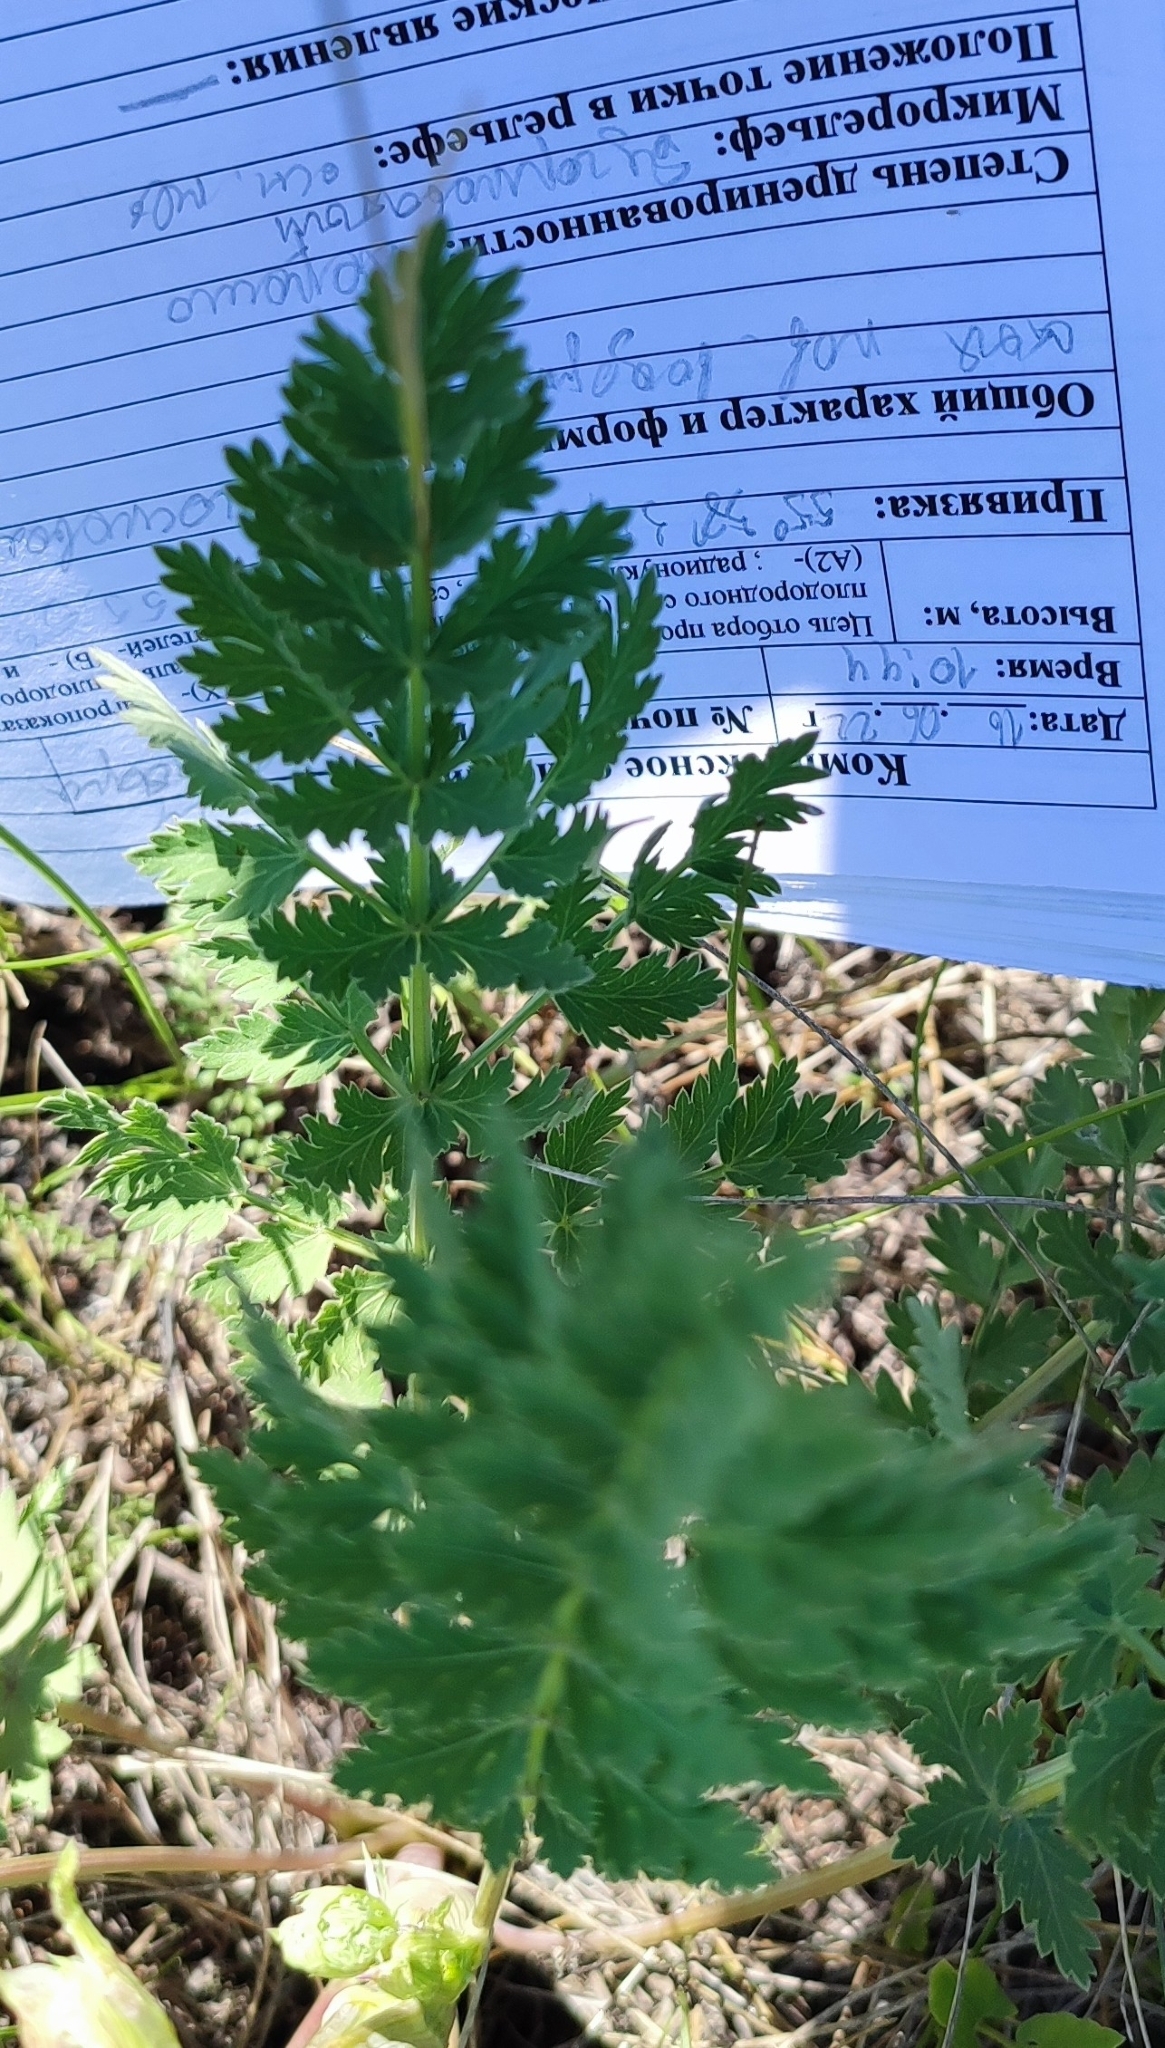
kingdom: Plantae
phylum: Tracheophyta
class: Magnoliopsida
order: Apiales
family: Apiaceae
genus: Seseli
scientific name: Seseli libanotis
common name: Mooncarrot
